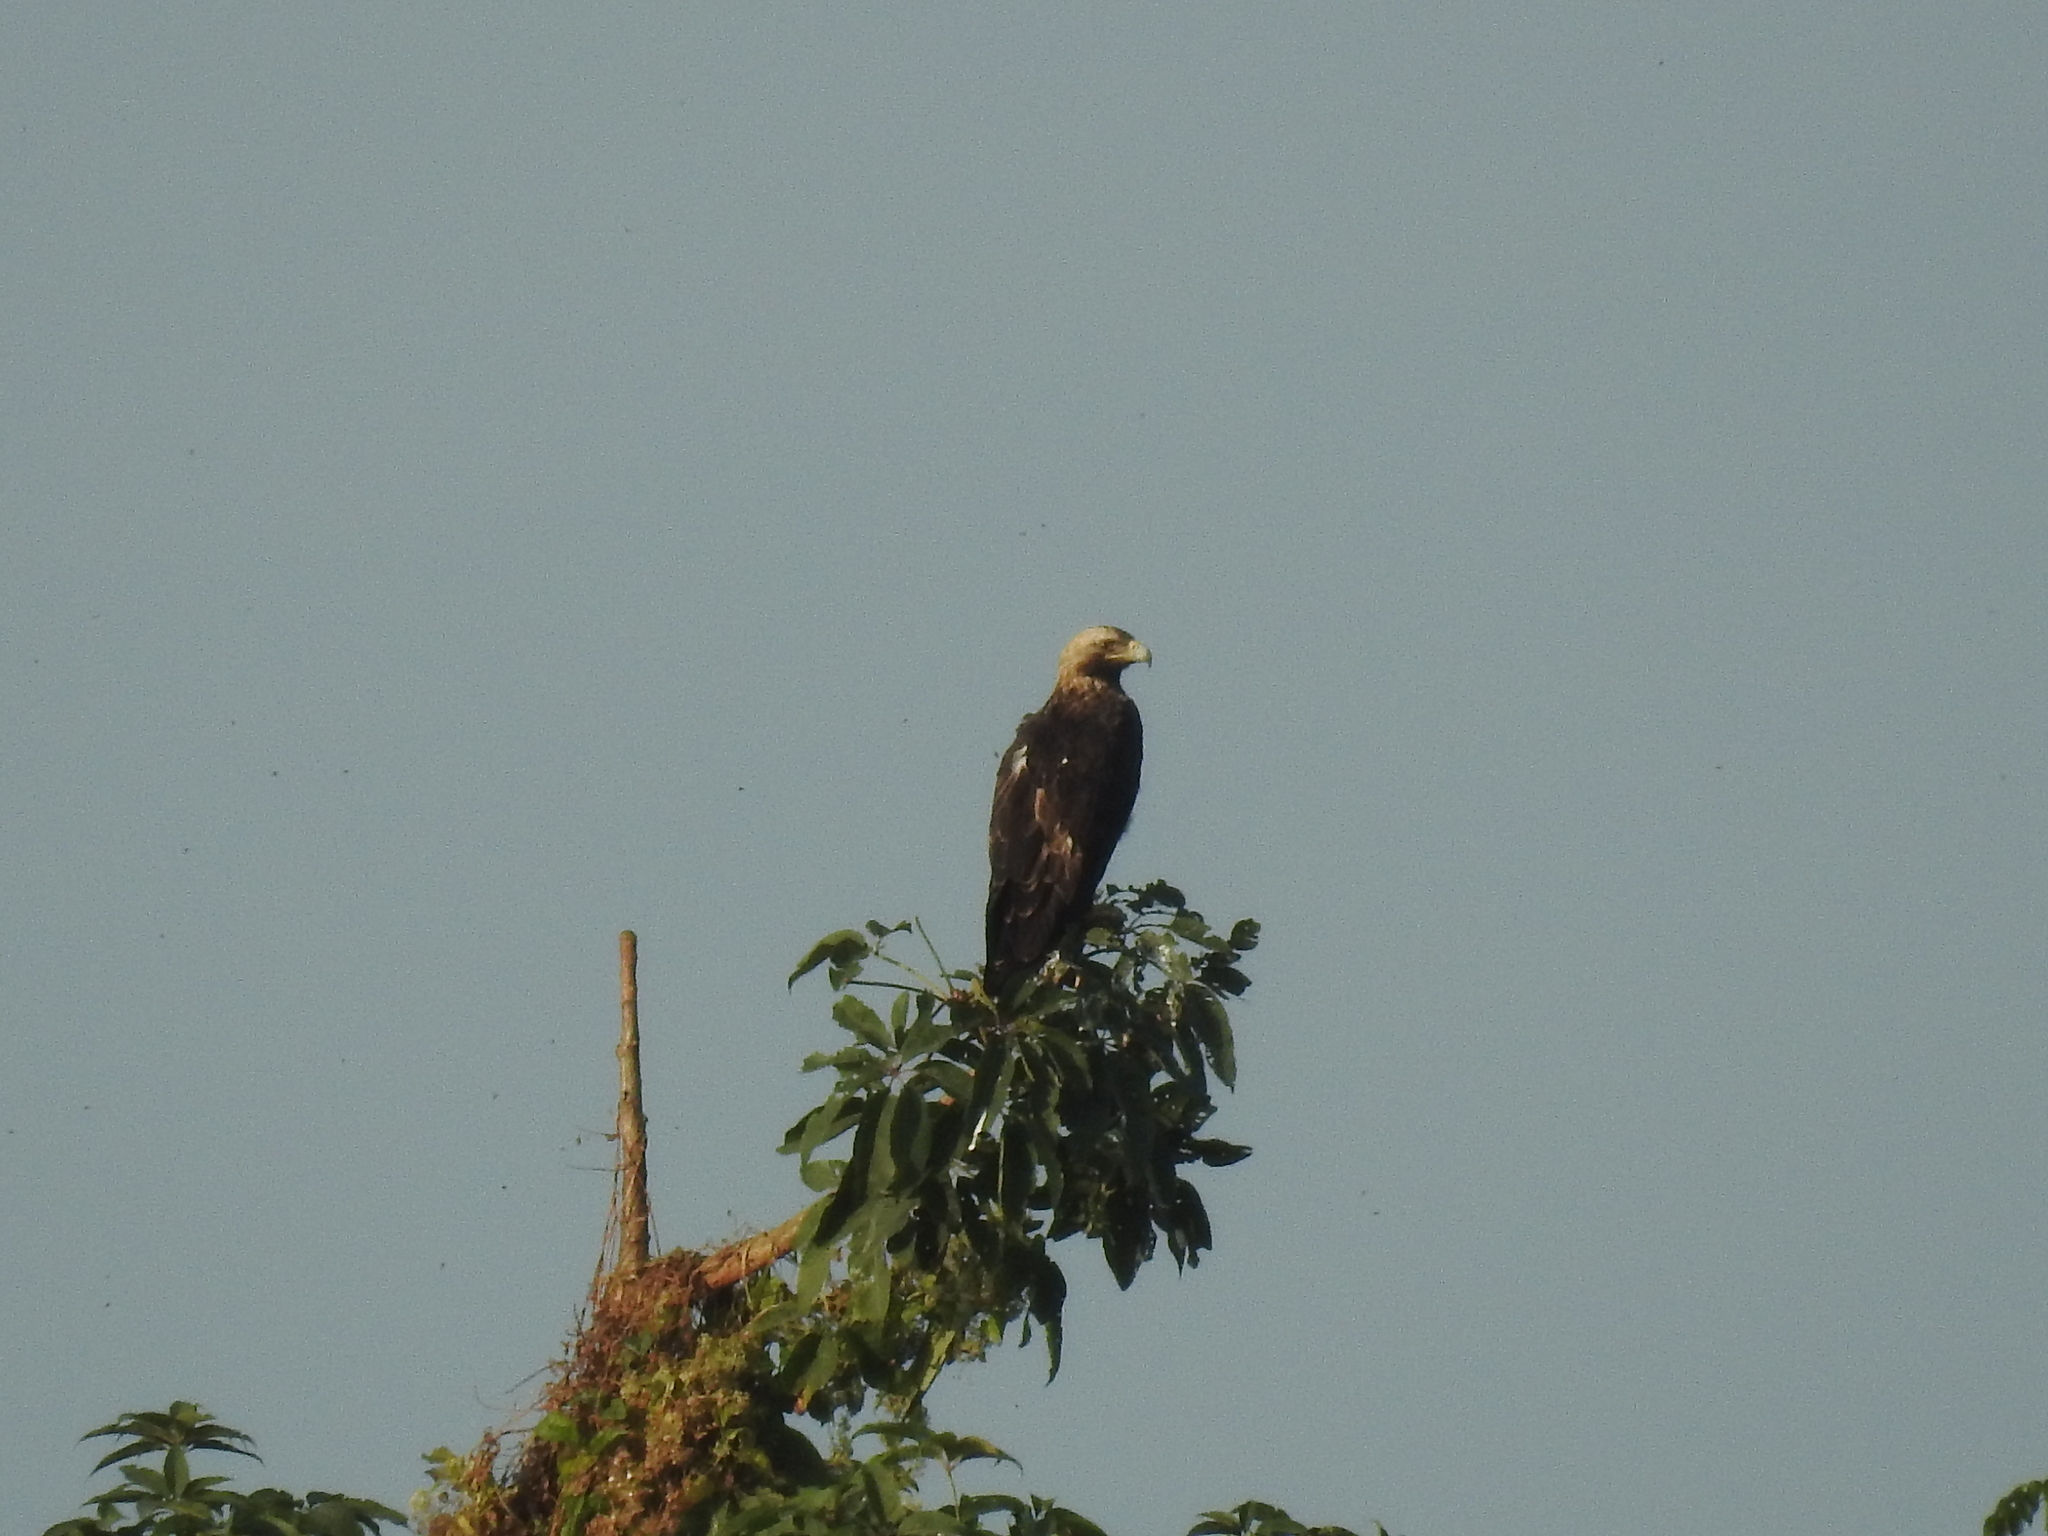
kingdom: Animalia
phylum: Chordata
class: Aves
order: Accipitriformes
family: Accipitridae
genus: Aquila
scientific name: Aquila heliaca
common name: Eastern imperial eagle
